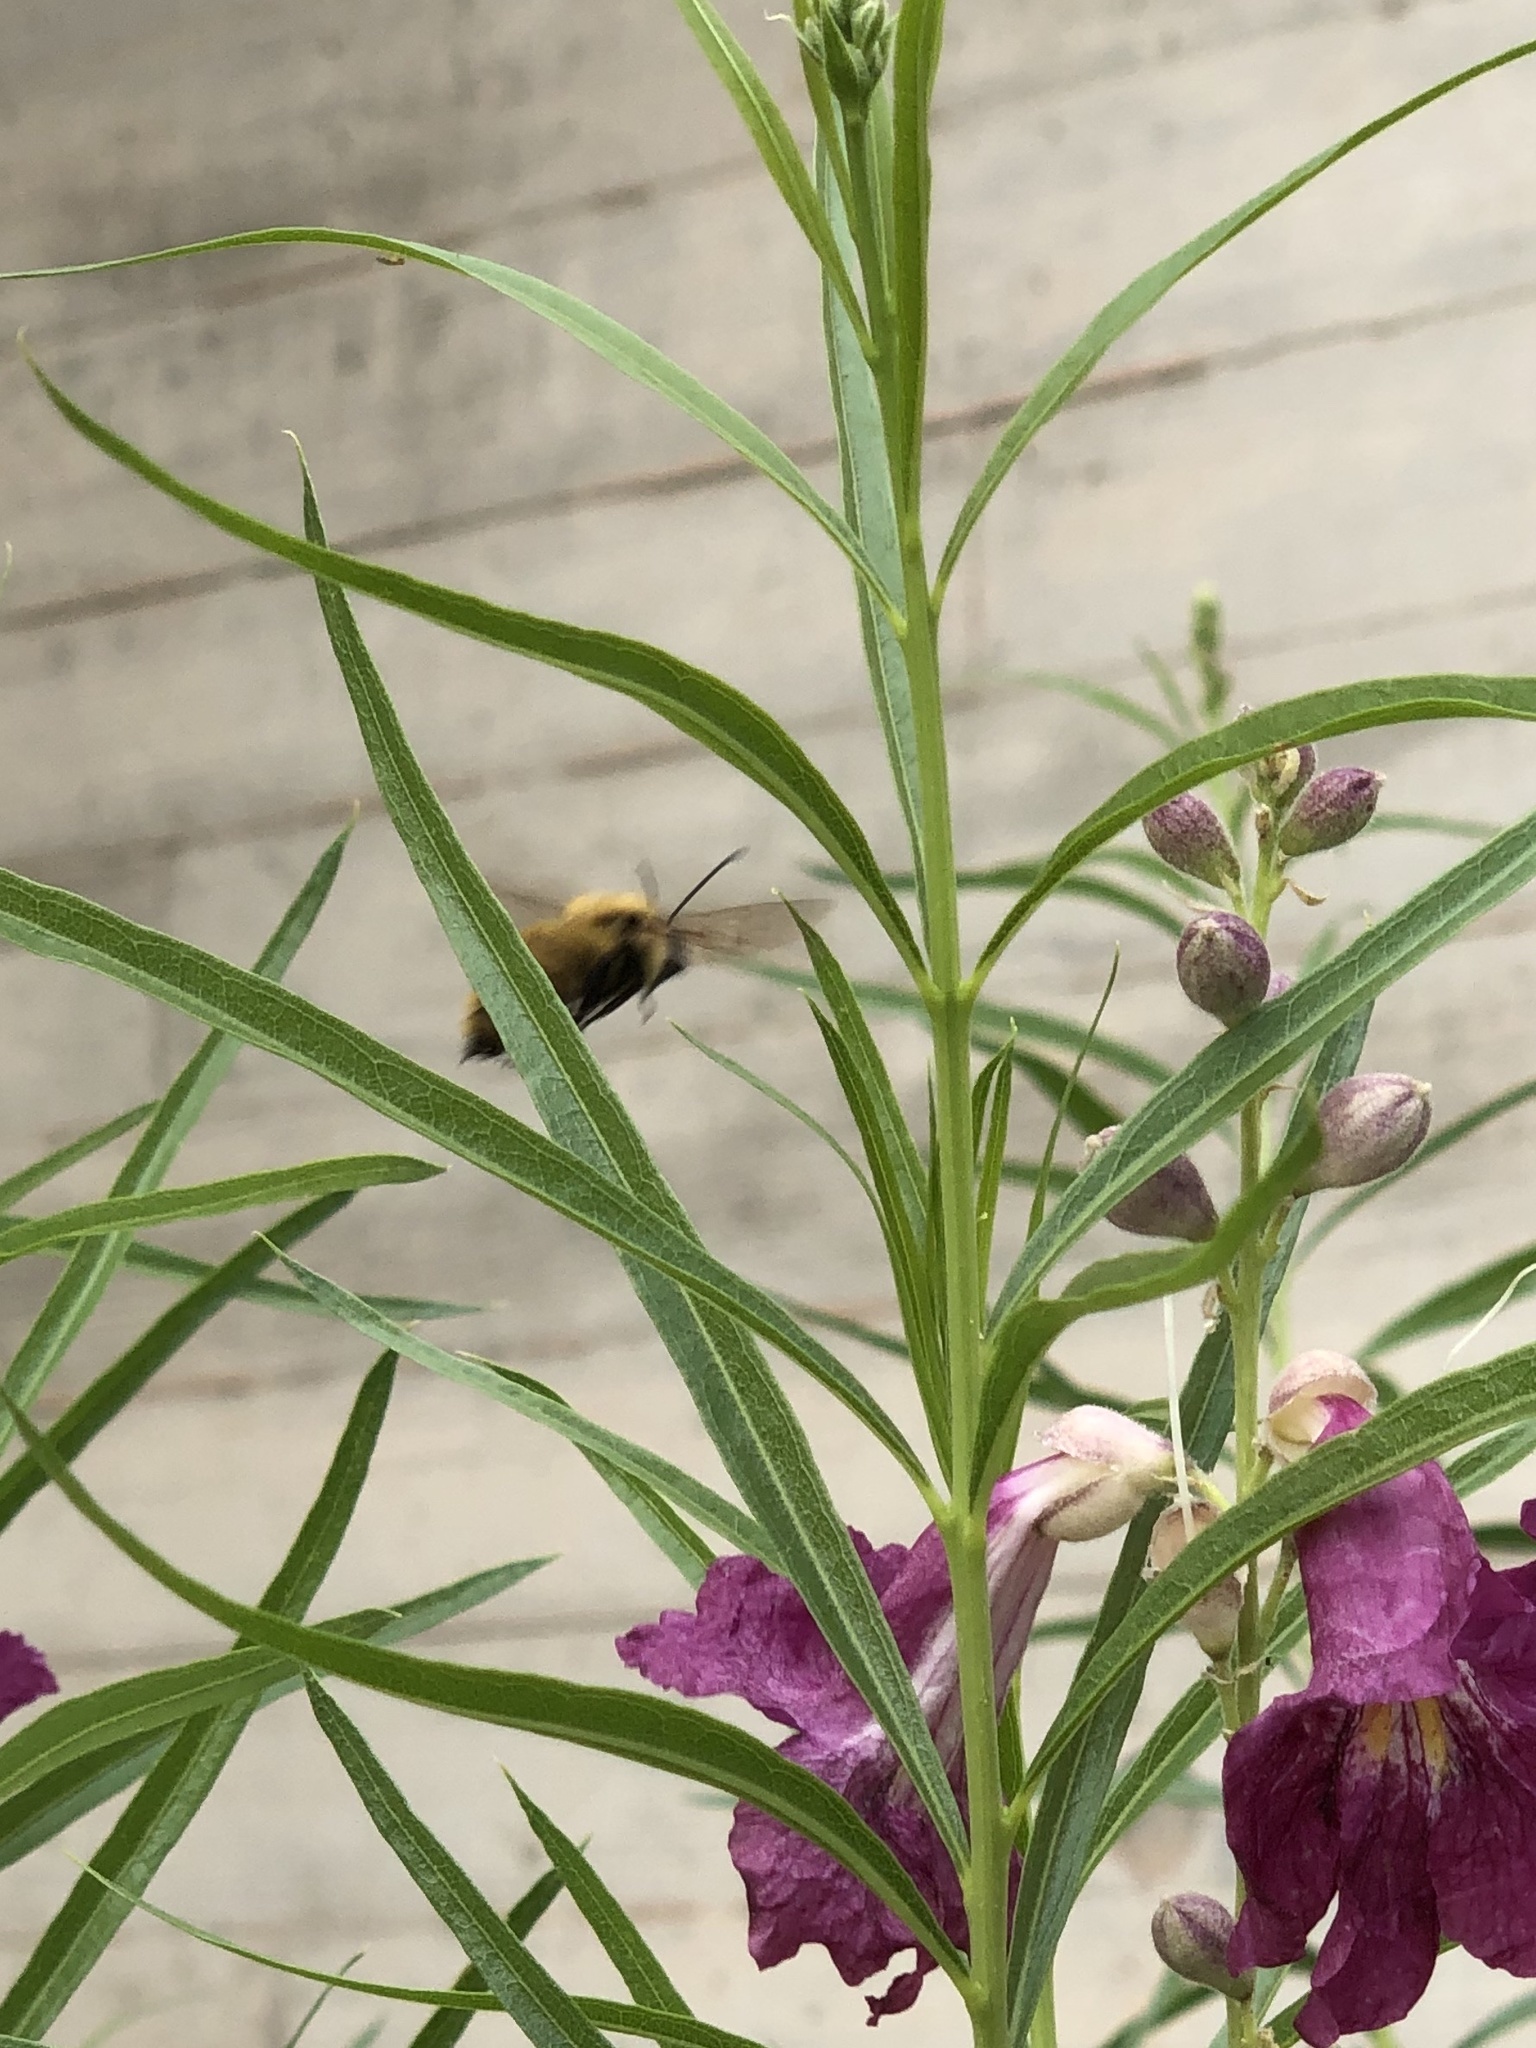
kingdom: Animalia
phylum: Arthropoda
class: Insecta
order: Hymenoptera
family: Apidae
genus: Bombus
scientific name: Bombus fervidus
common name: Yellow bumble bee
